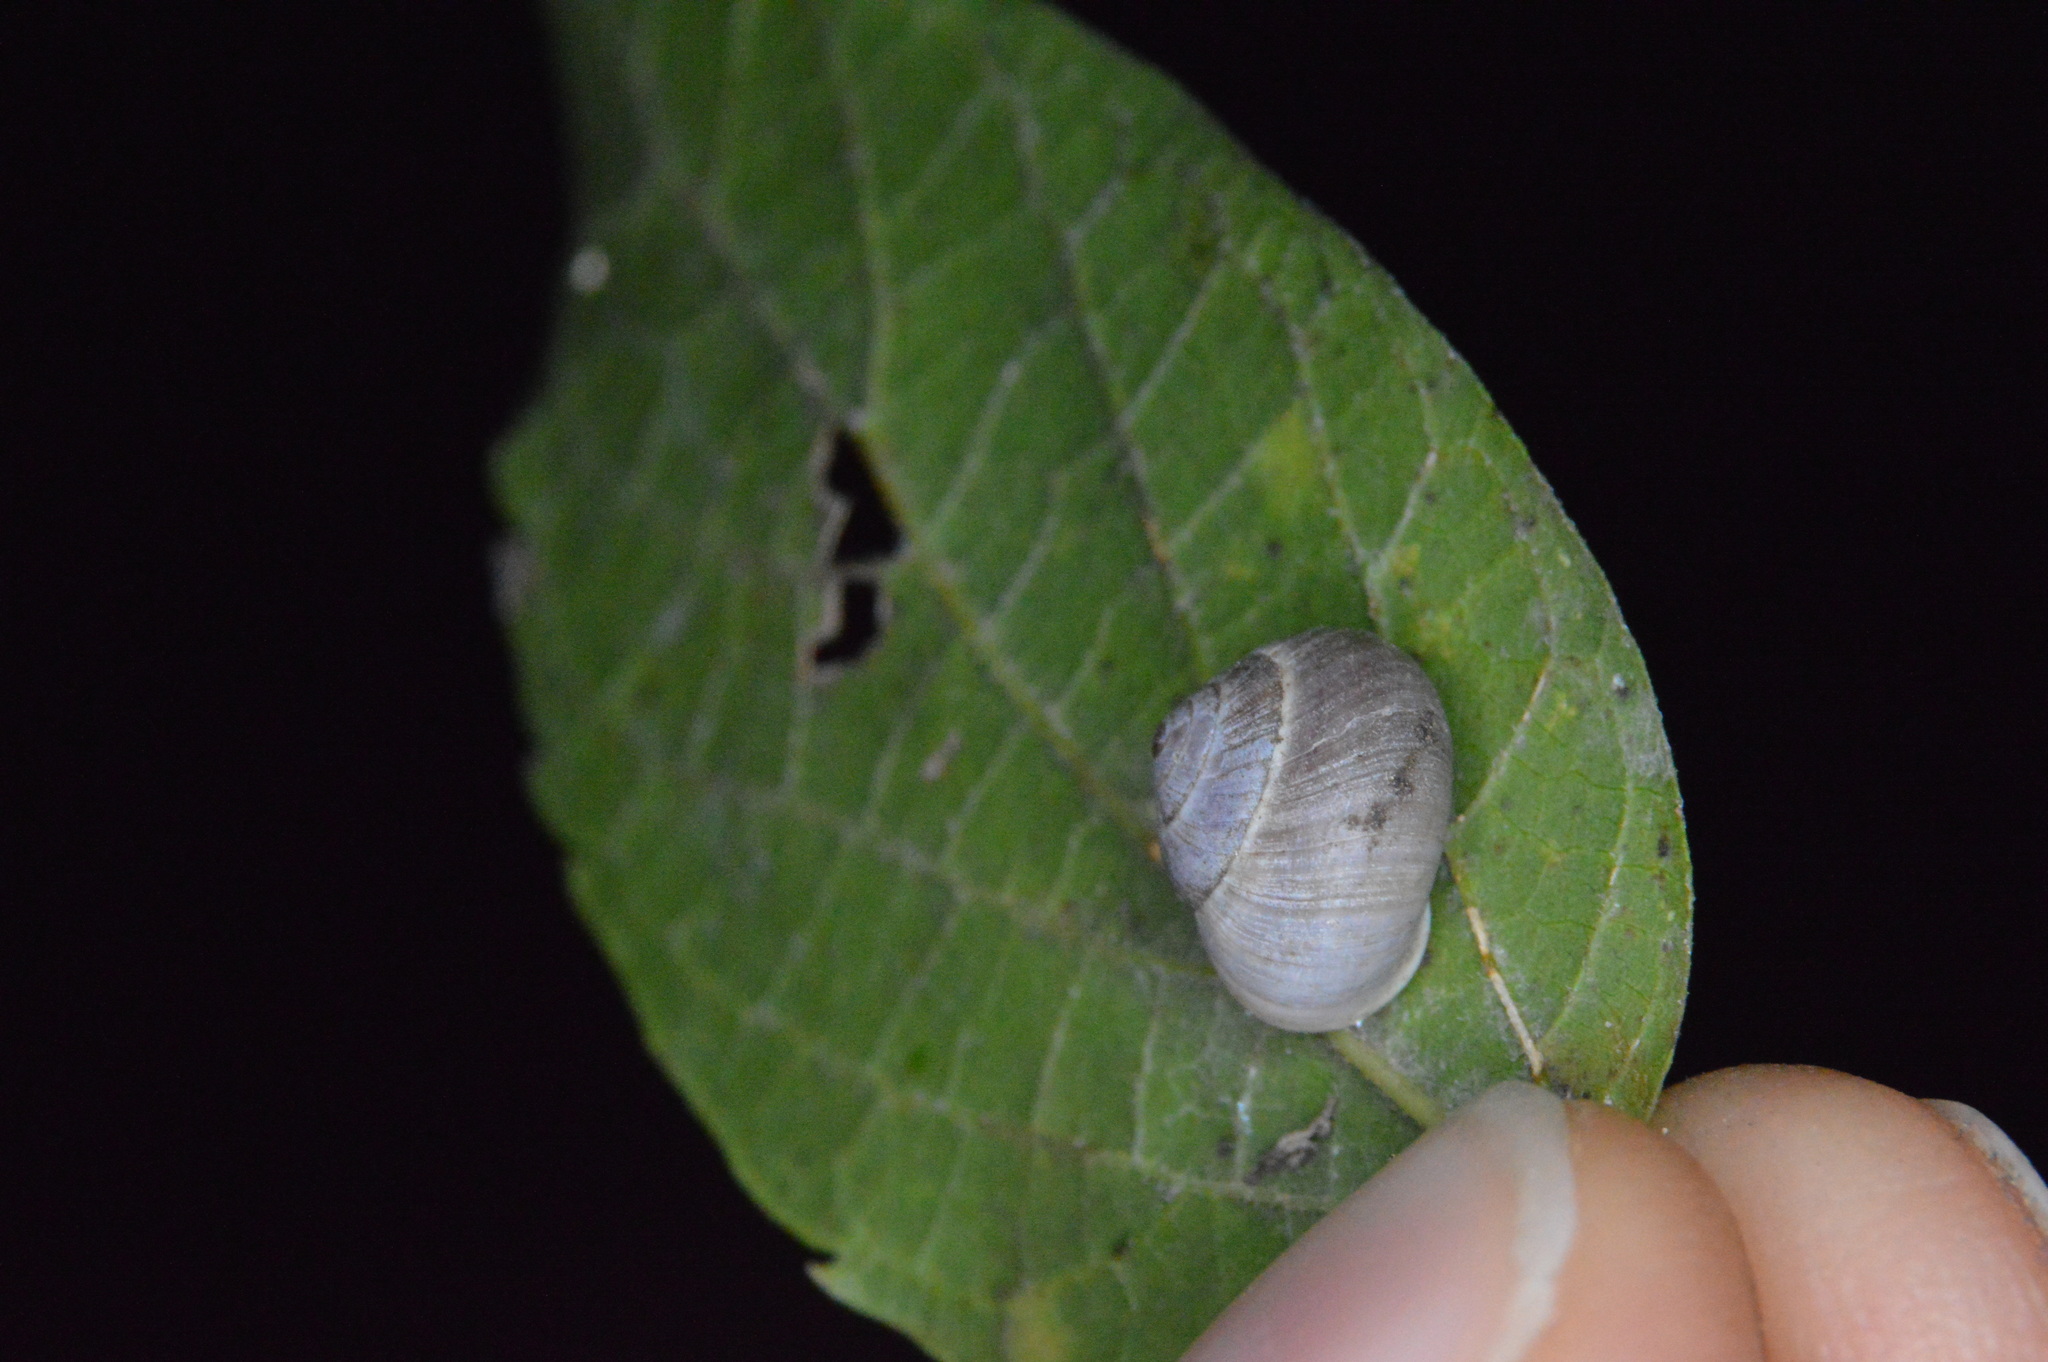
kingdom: Animalia
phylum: Mollusca
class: Gastropoda
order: Cycloneritida
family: Helicinidae
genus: Helicina
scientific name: Helicina orbiculata
